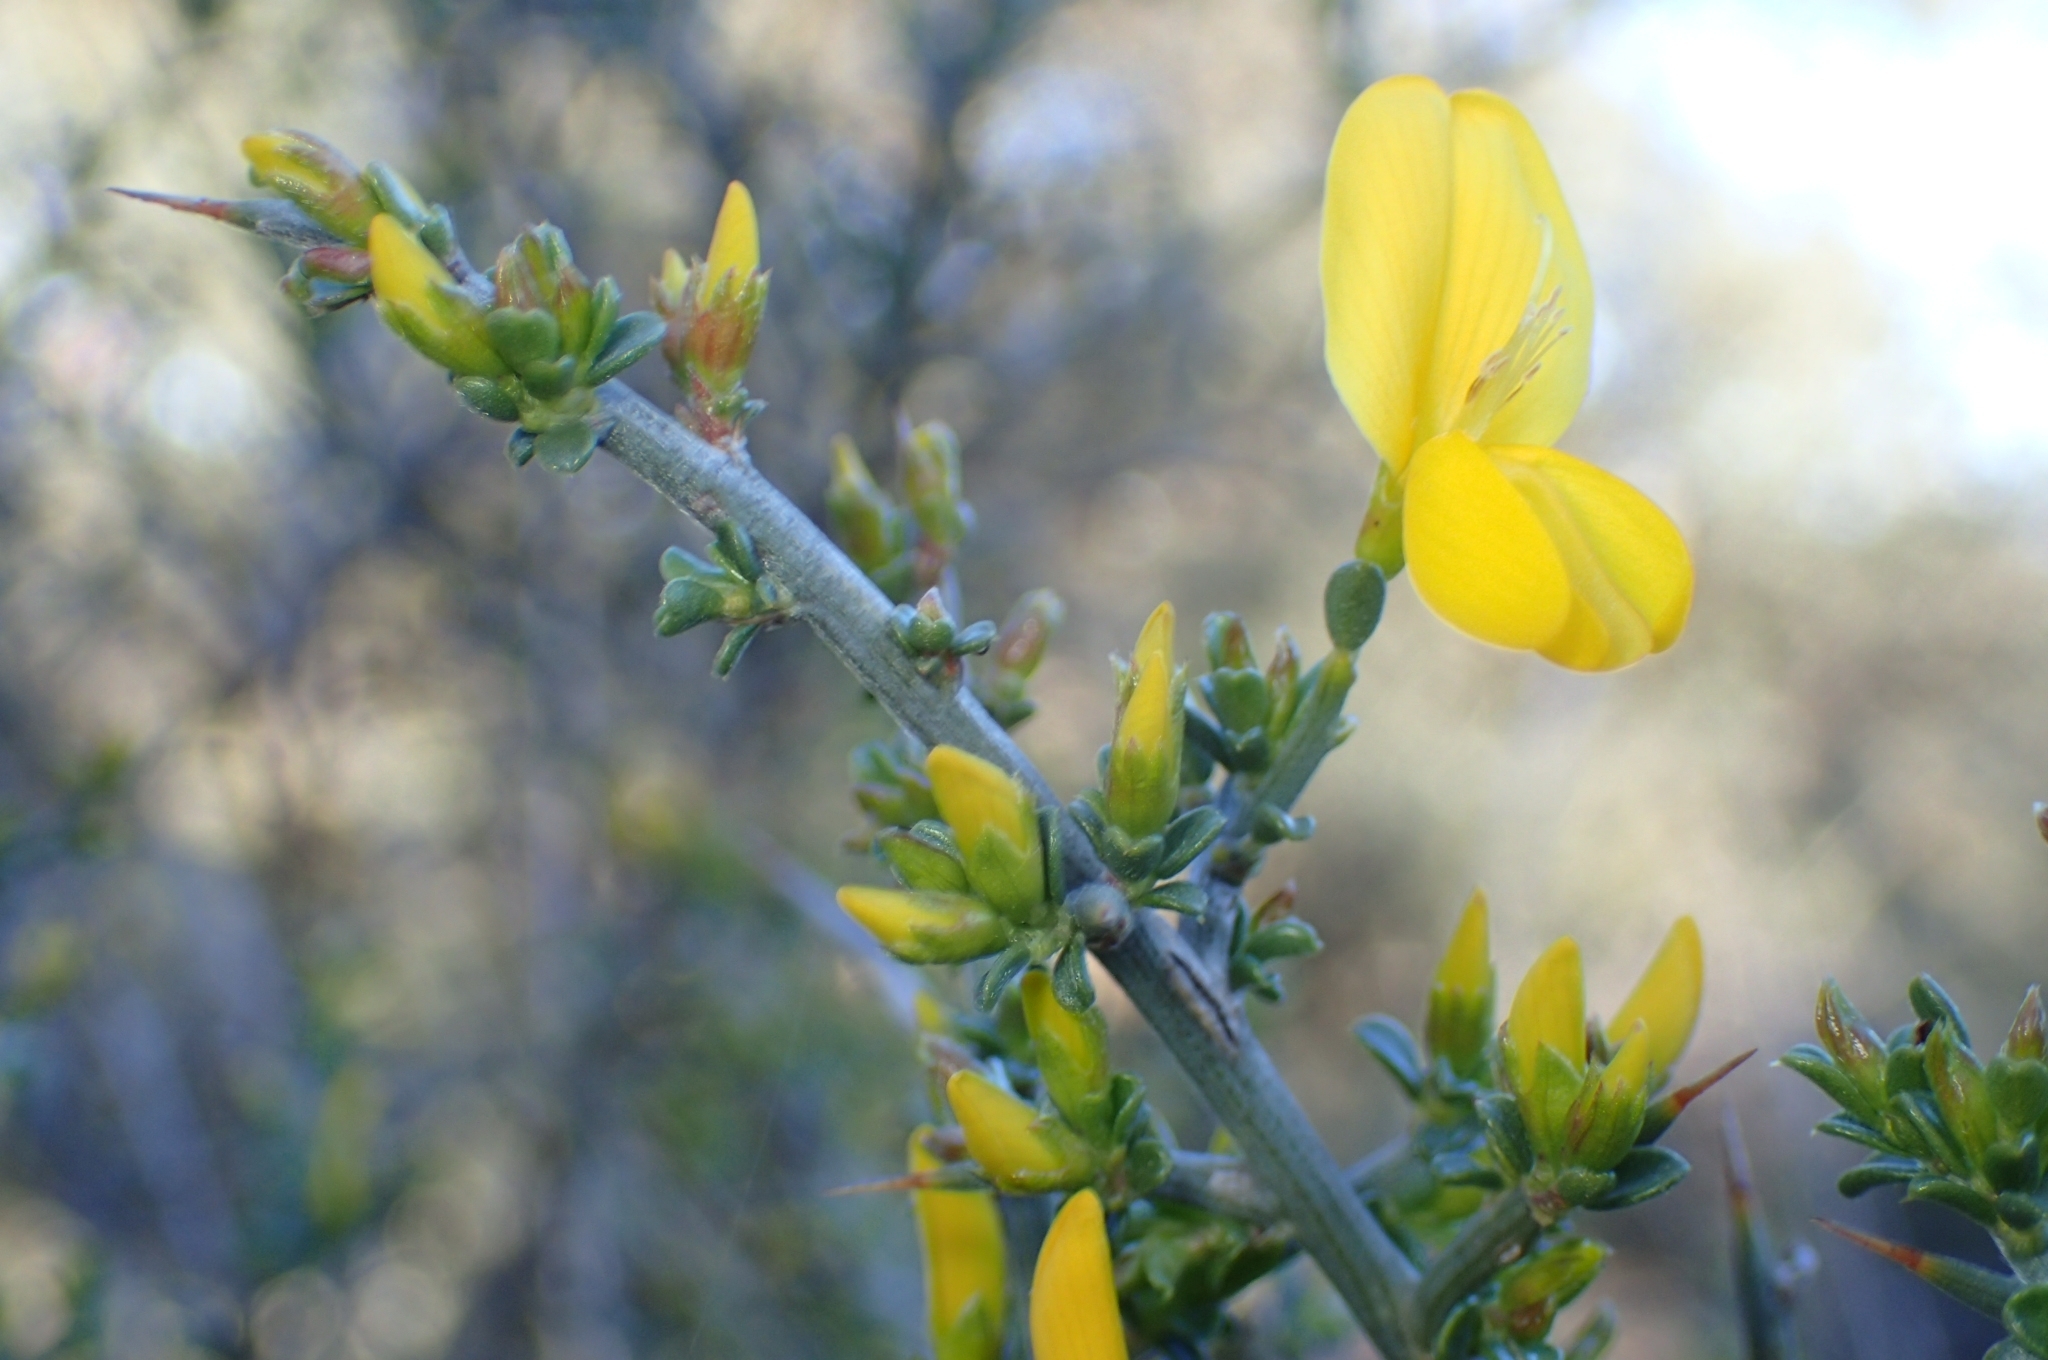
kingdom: Plantae
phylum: Tracheophyta
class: Magnoliopsida
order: Fabales
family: Fabaceae
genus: Genista
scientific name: Genista scorpius
